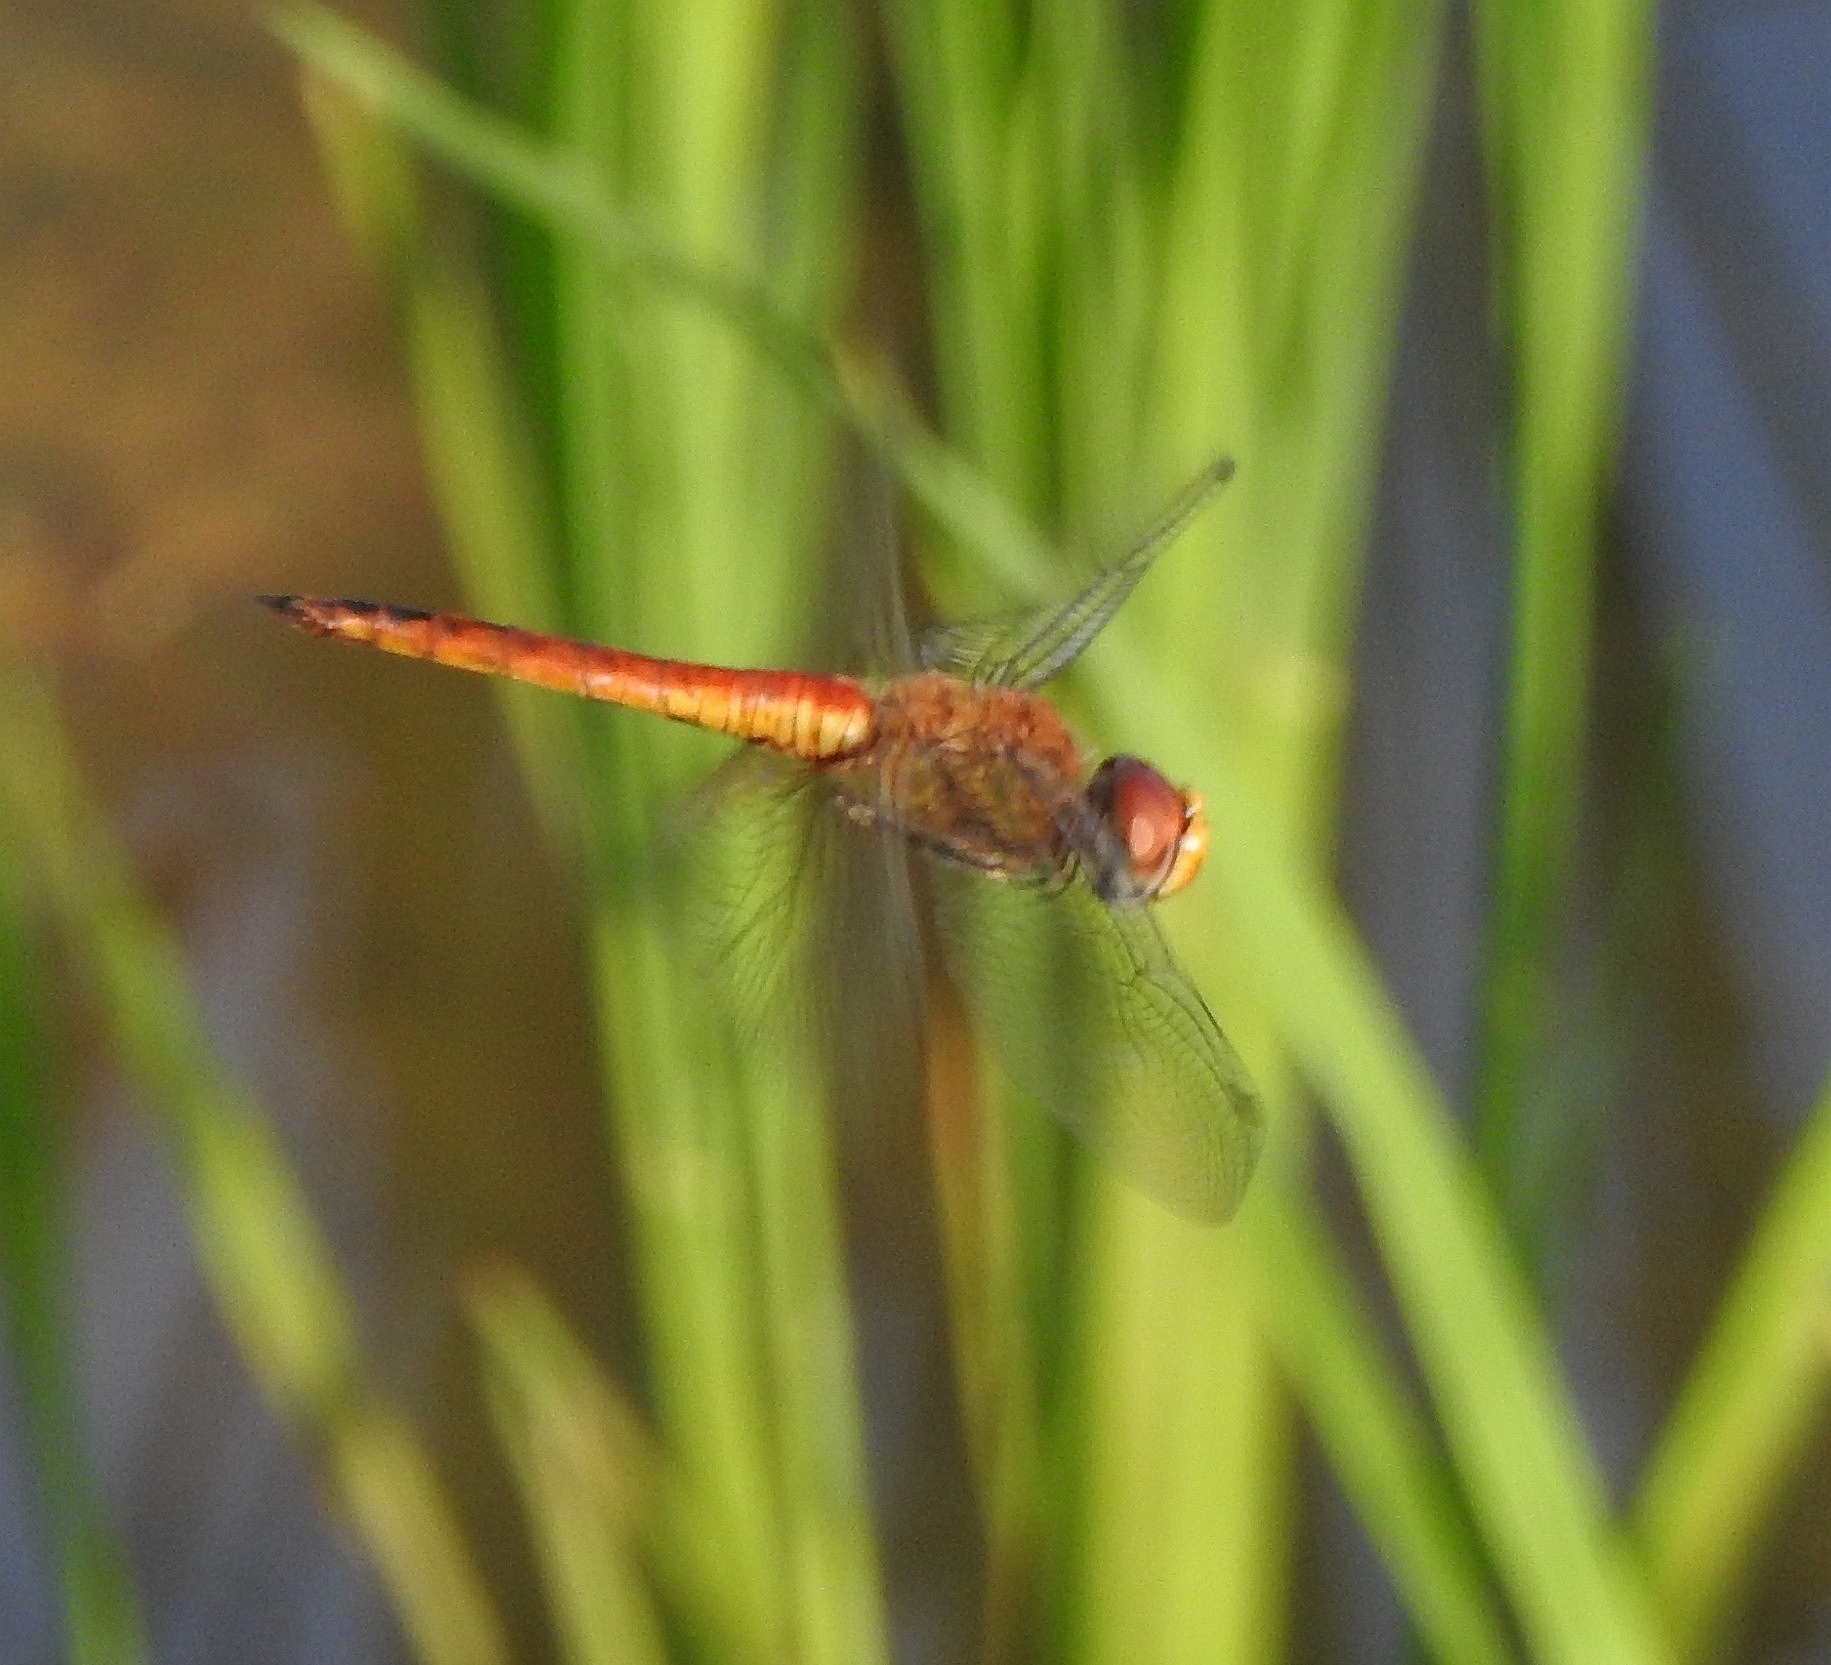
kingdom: Animalia
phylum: Arthropoda
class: Insecta
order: Odonata
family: Libellulidae
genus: Pantala
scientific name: Pantala flavescens
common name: Wandering glider
